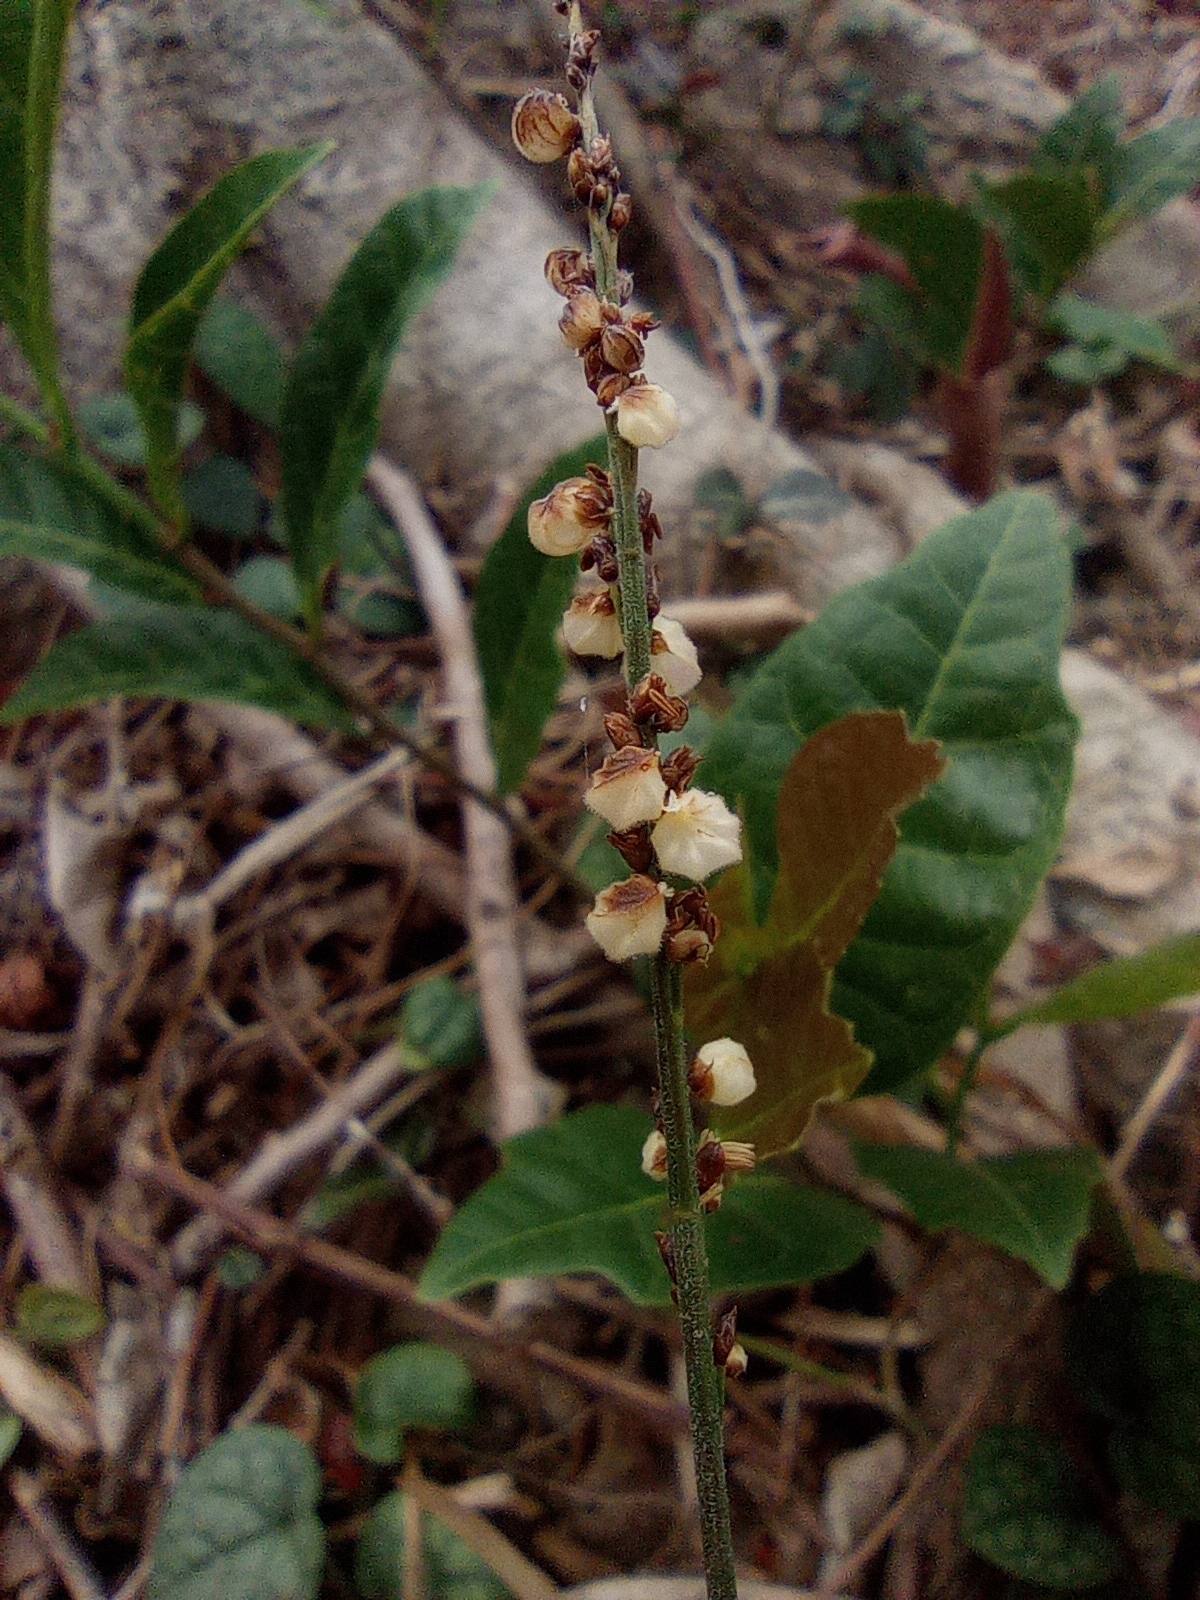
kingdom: Plantae
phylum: Tracheophyta
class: Liliopsida
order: Poales
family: Poaceae
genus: Leptaspis
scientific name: Leptaspis banksii
